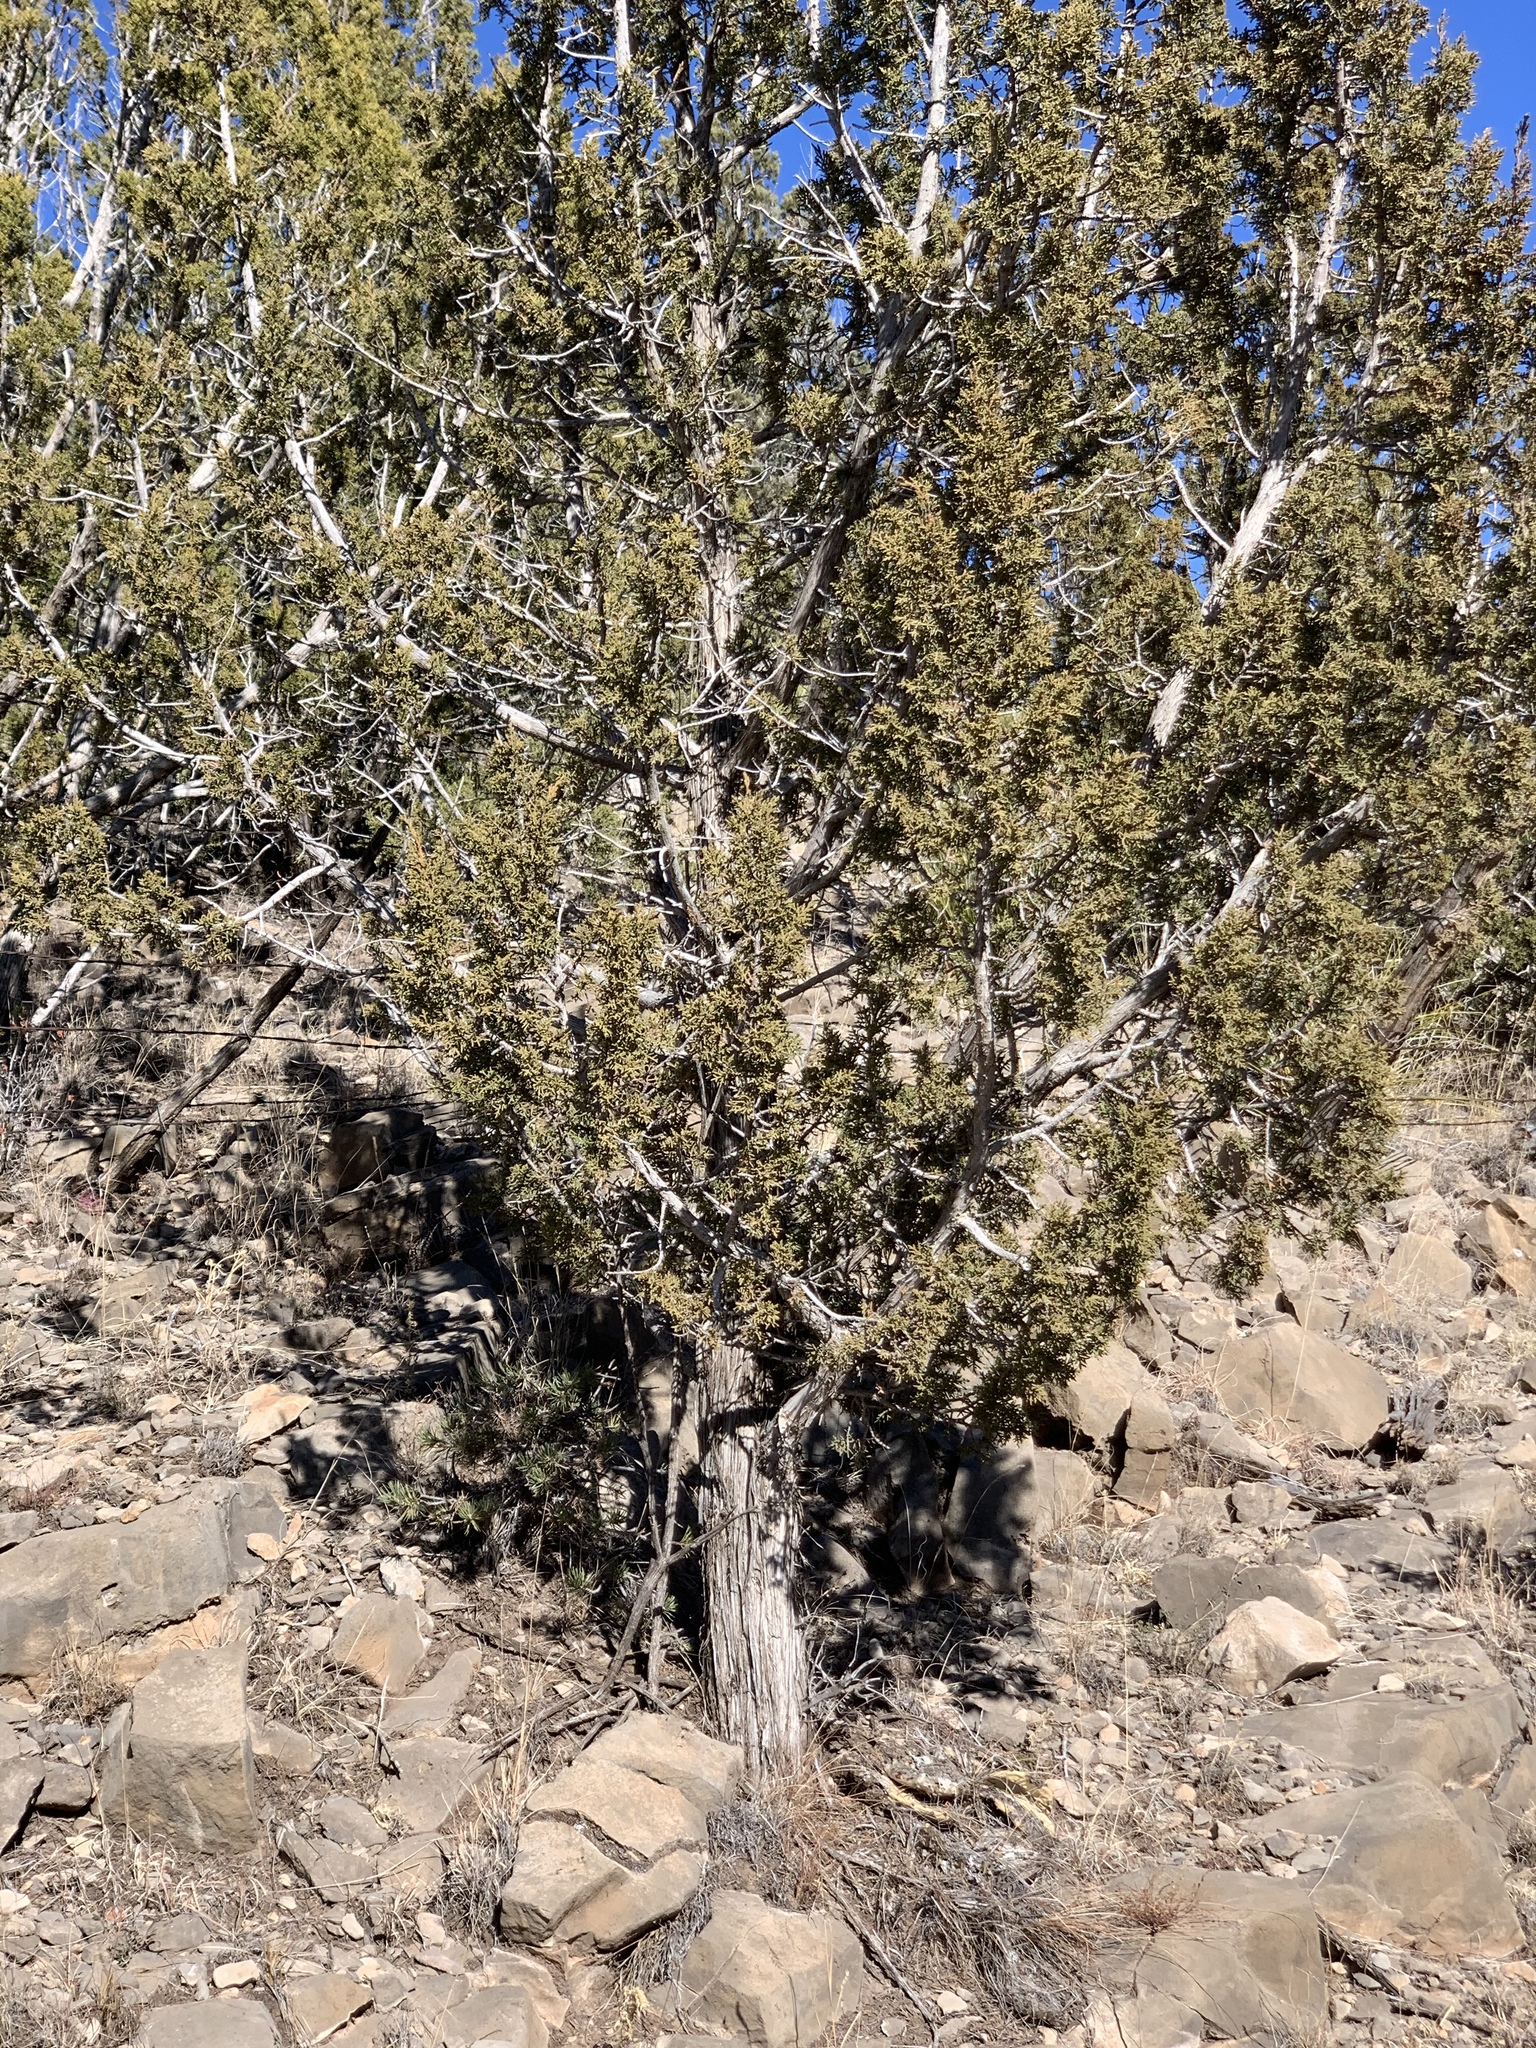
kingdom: Plantae
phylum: Tracheophyta
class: Pinopsida
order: Pinales
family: Cupressaceae
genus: Juniperus
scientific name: Juniperus monosperma
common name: One-seed juniper
